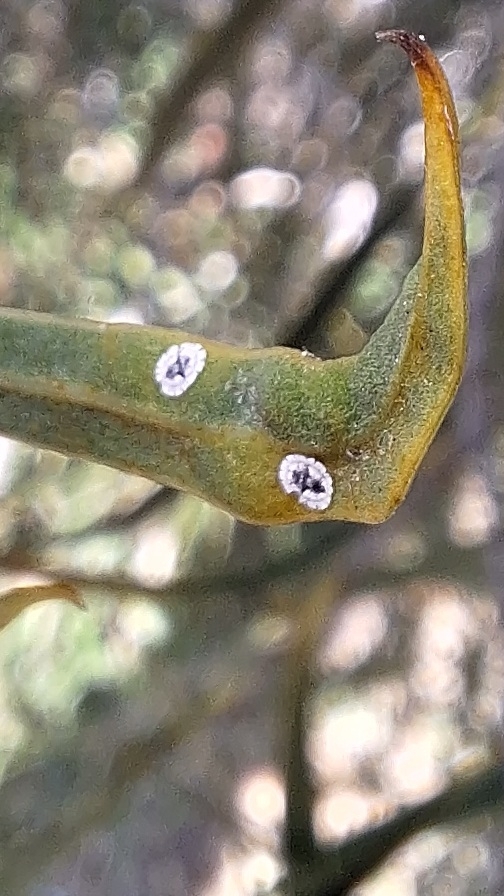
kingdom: Animalia
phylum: Arthropoda
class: Insecta
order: Hemiptera
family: Aleyrodidae
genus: Dumbletoniella
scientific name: Dumbletoniella pittospori
